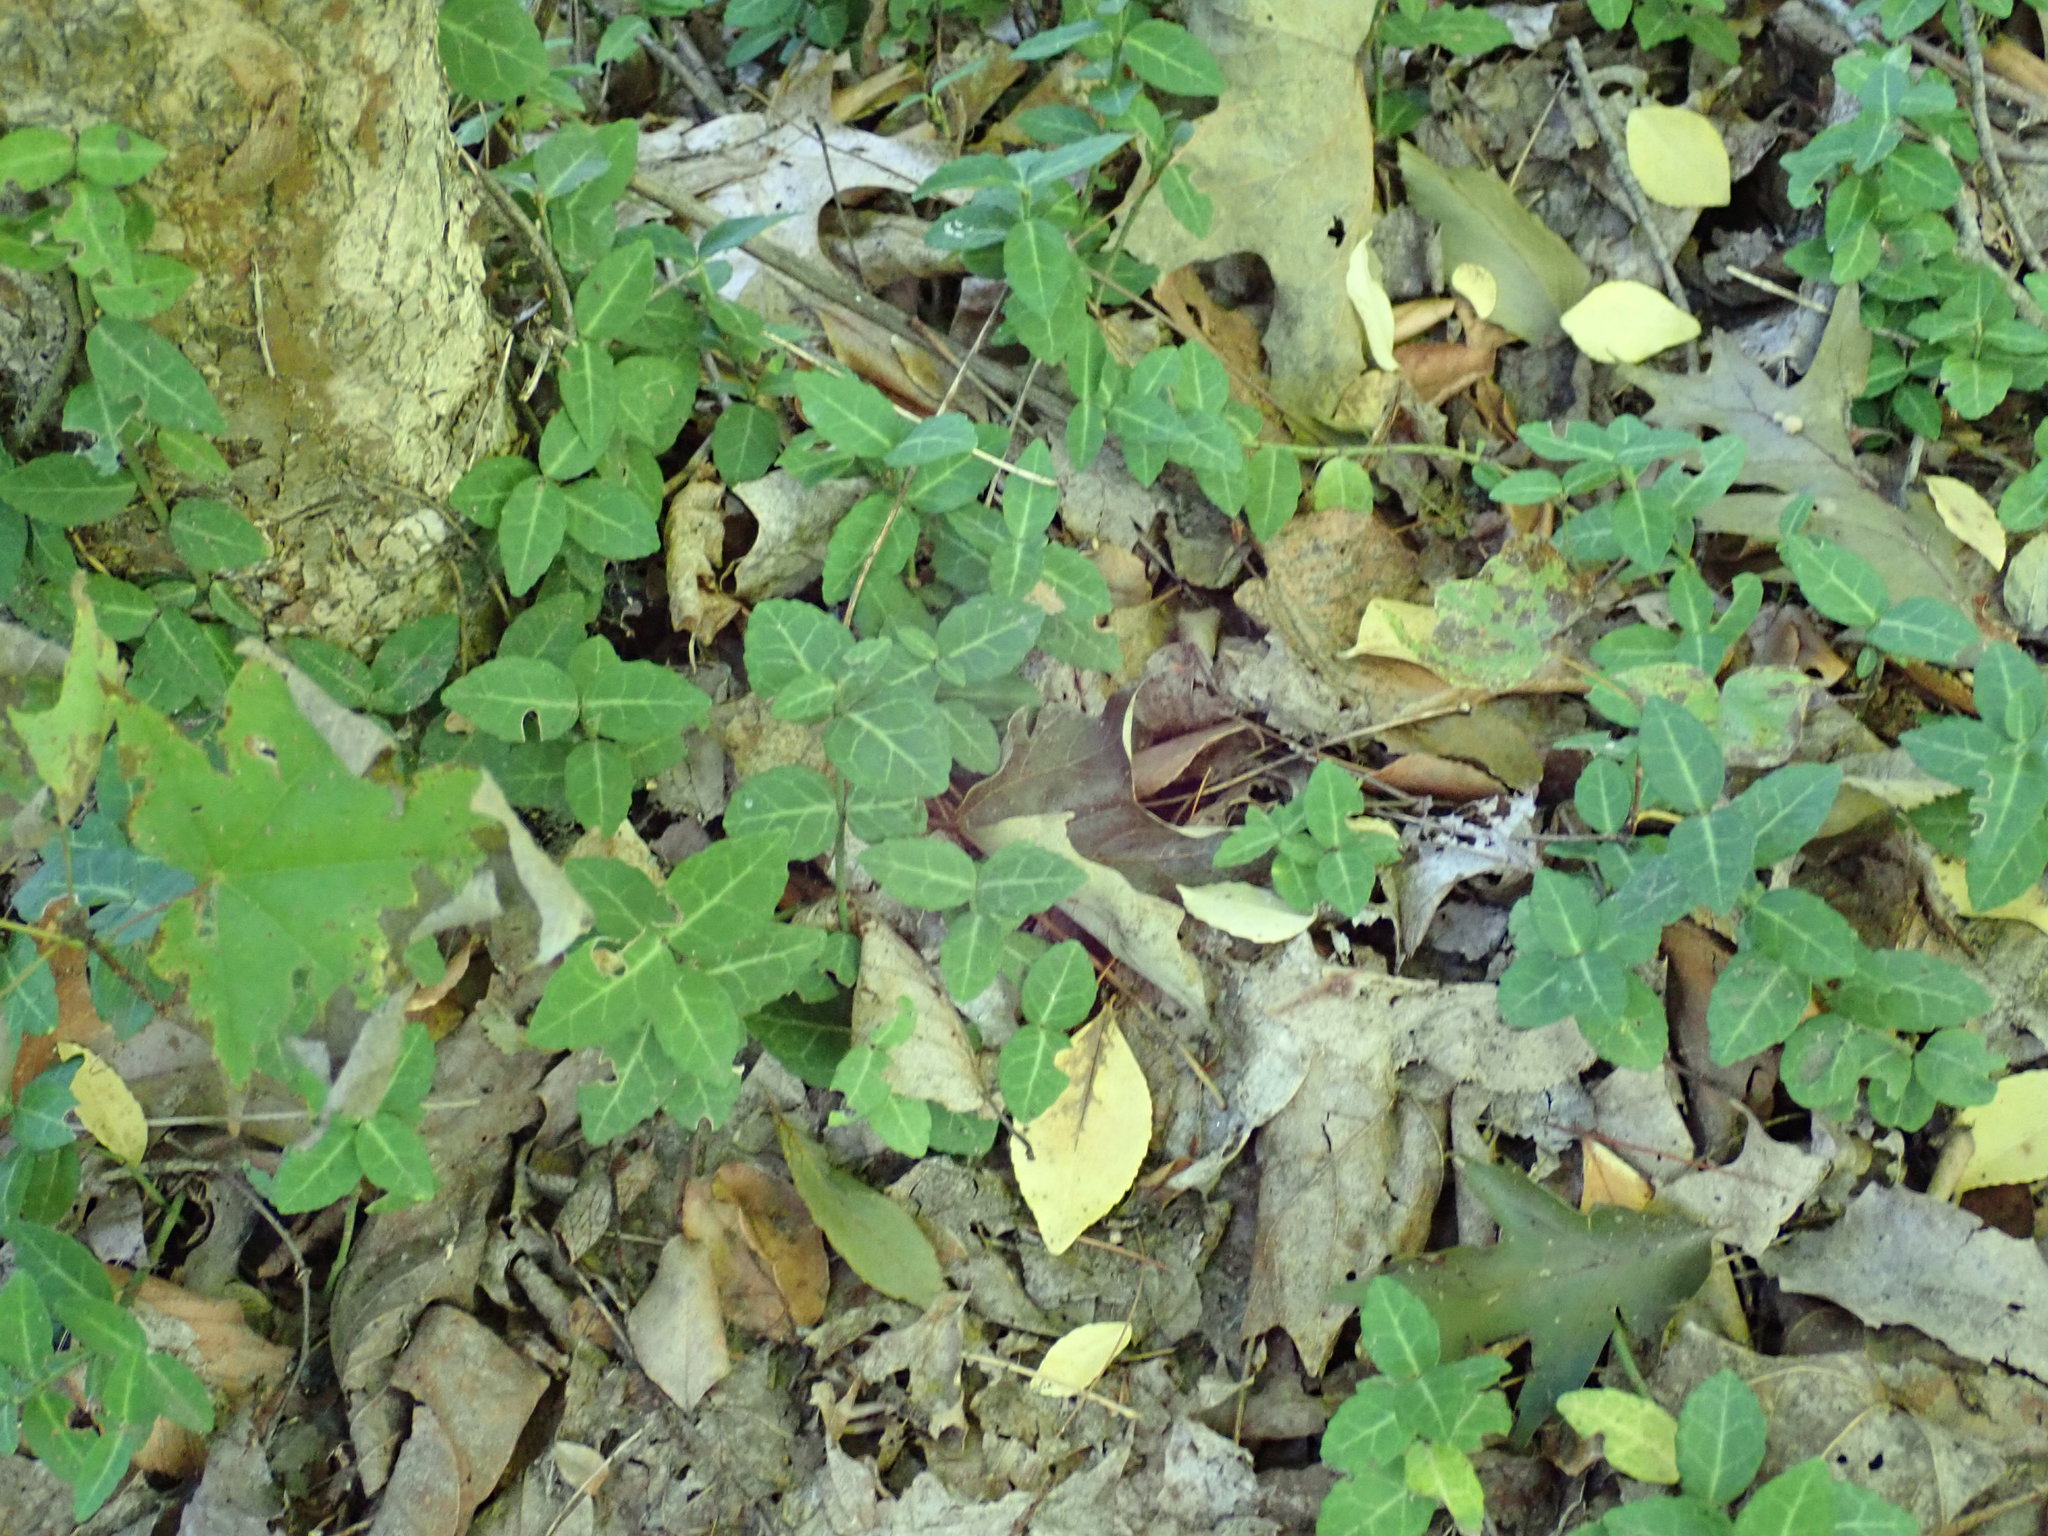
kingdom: Plantae
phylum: Tracheophyta
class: Magnoliopsida
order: Celastrales
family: Celastraceae
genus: Euonymus
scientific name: Euonymus fortunei
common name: Climbing euonymus
